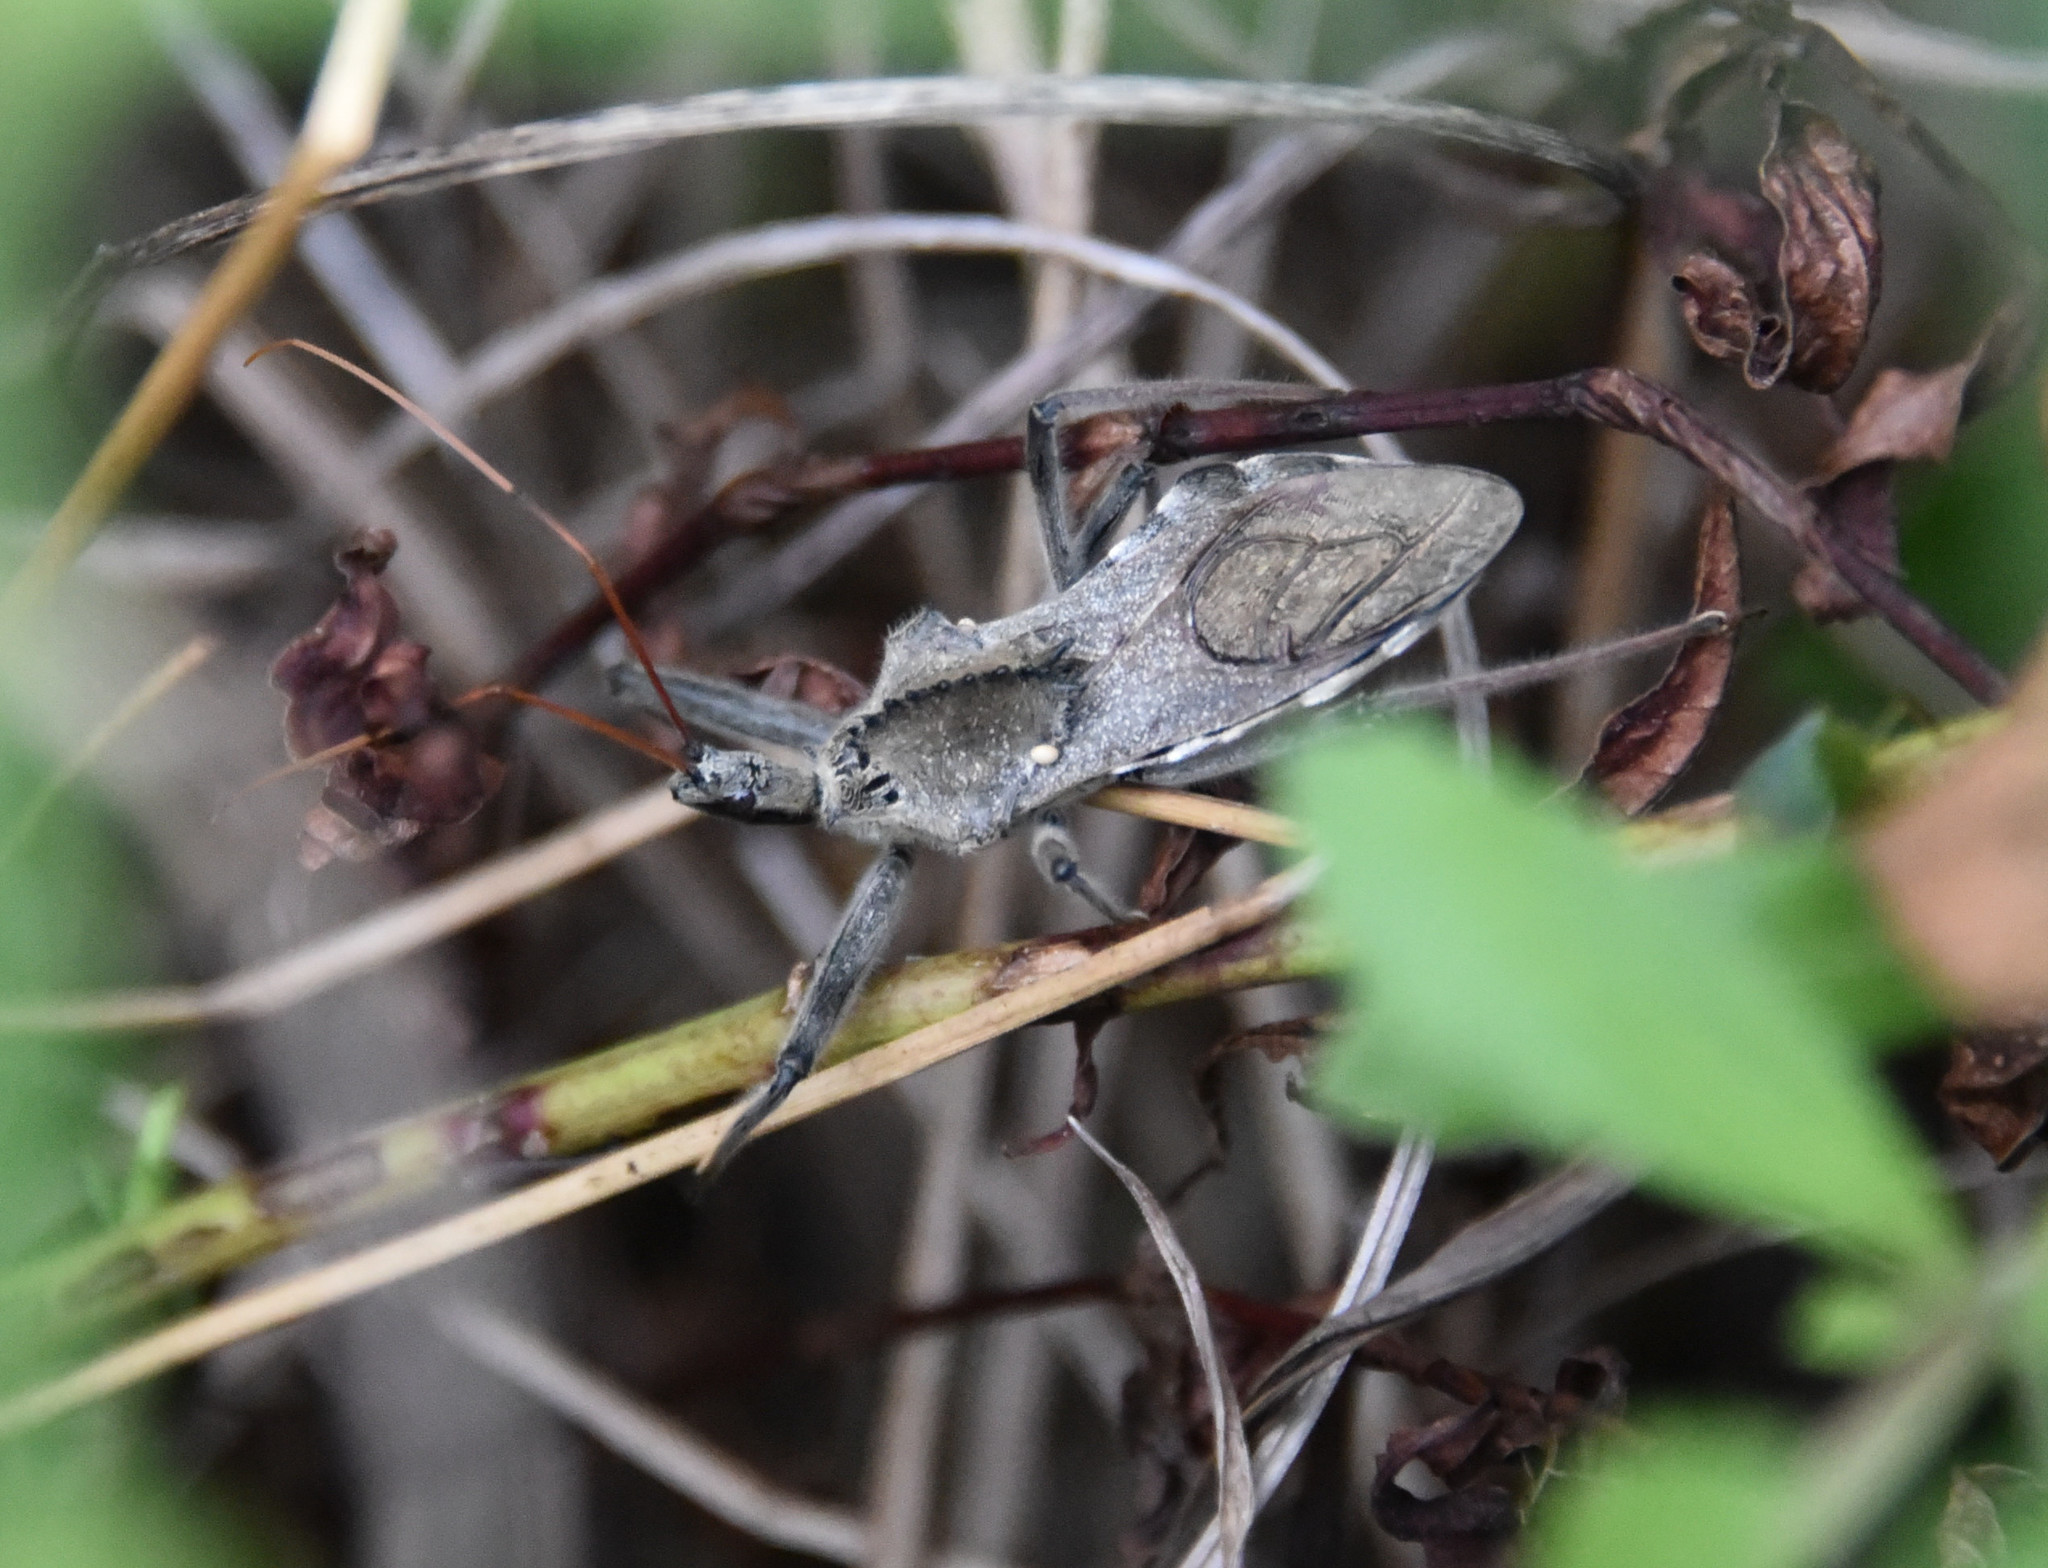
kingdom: Animalia
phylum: Arthropoda
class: Insecta
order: Hemiptera
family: Reduviidae
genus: Arilus
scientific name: Arilus cristatus
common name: North american wheel bug
